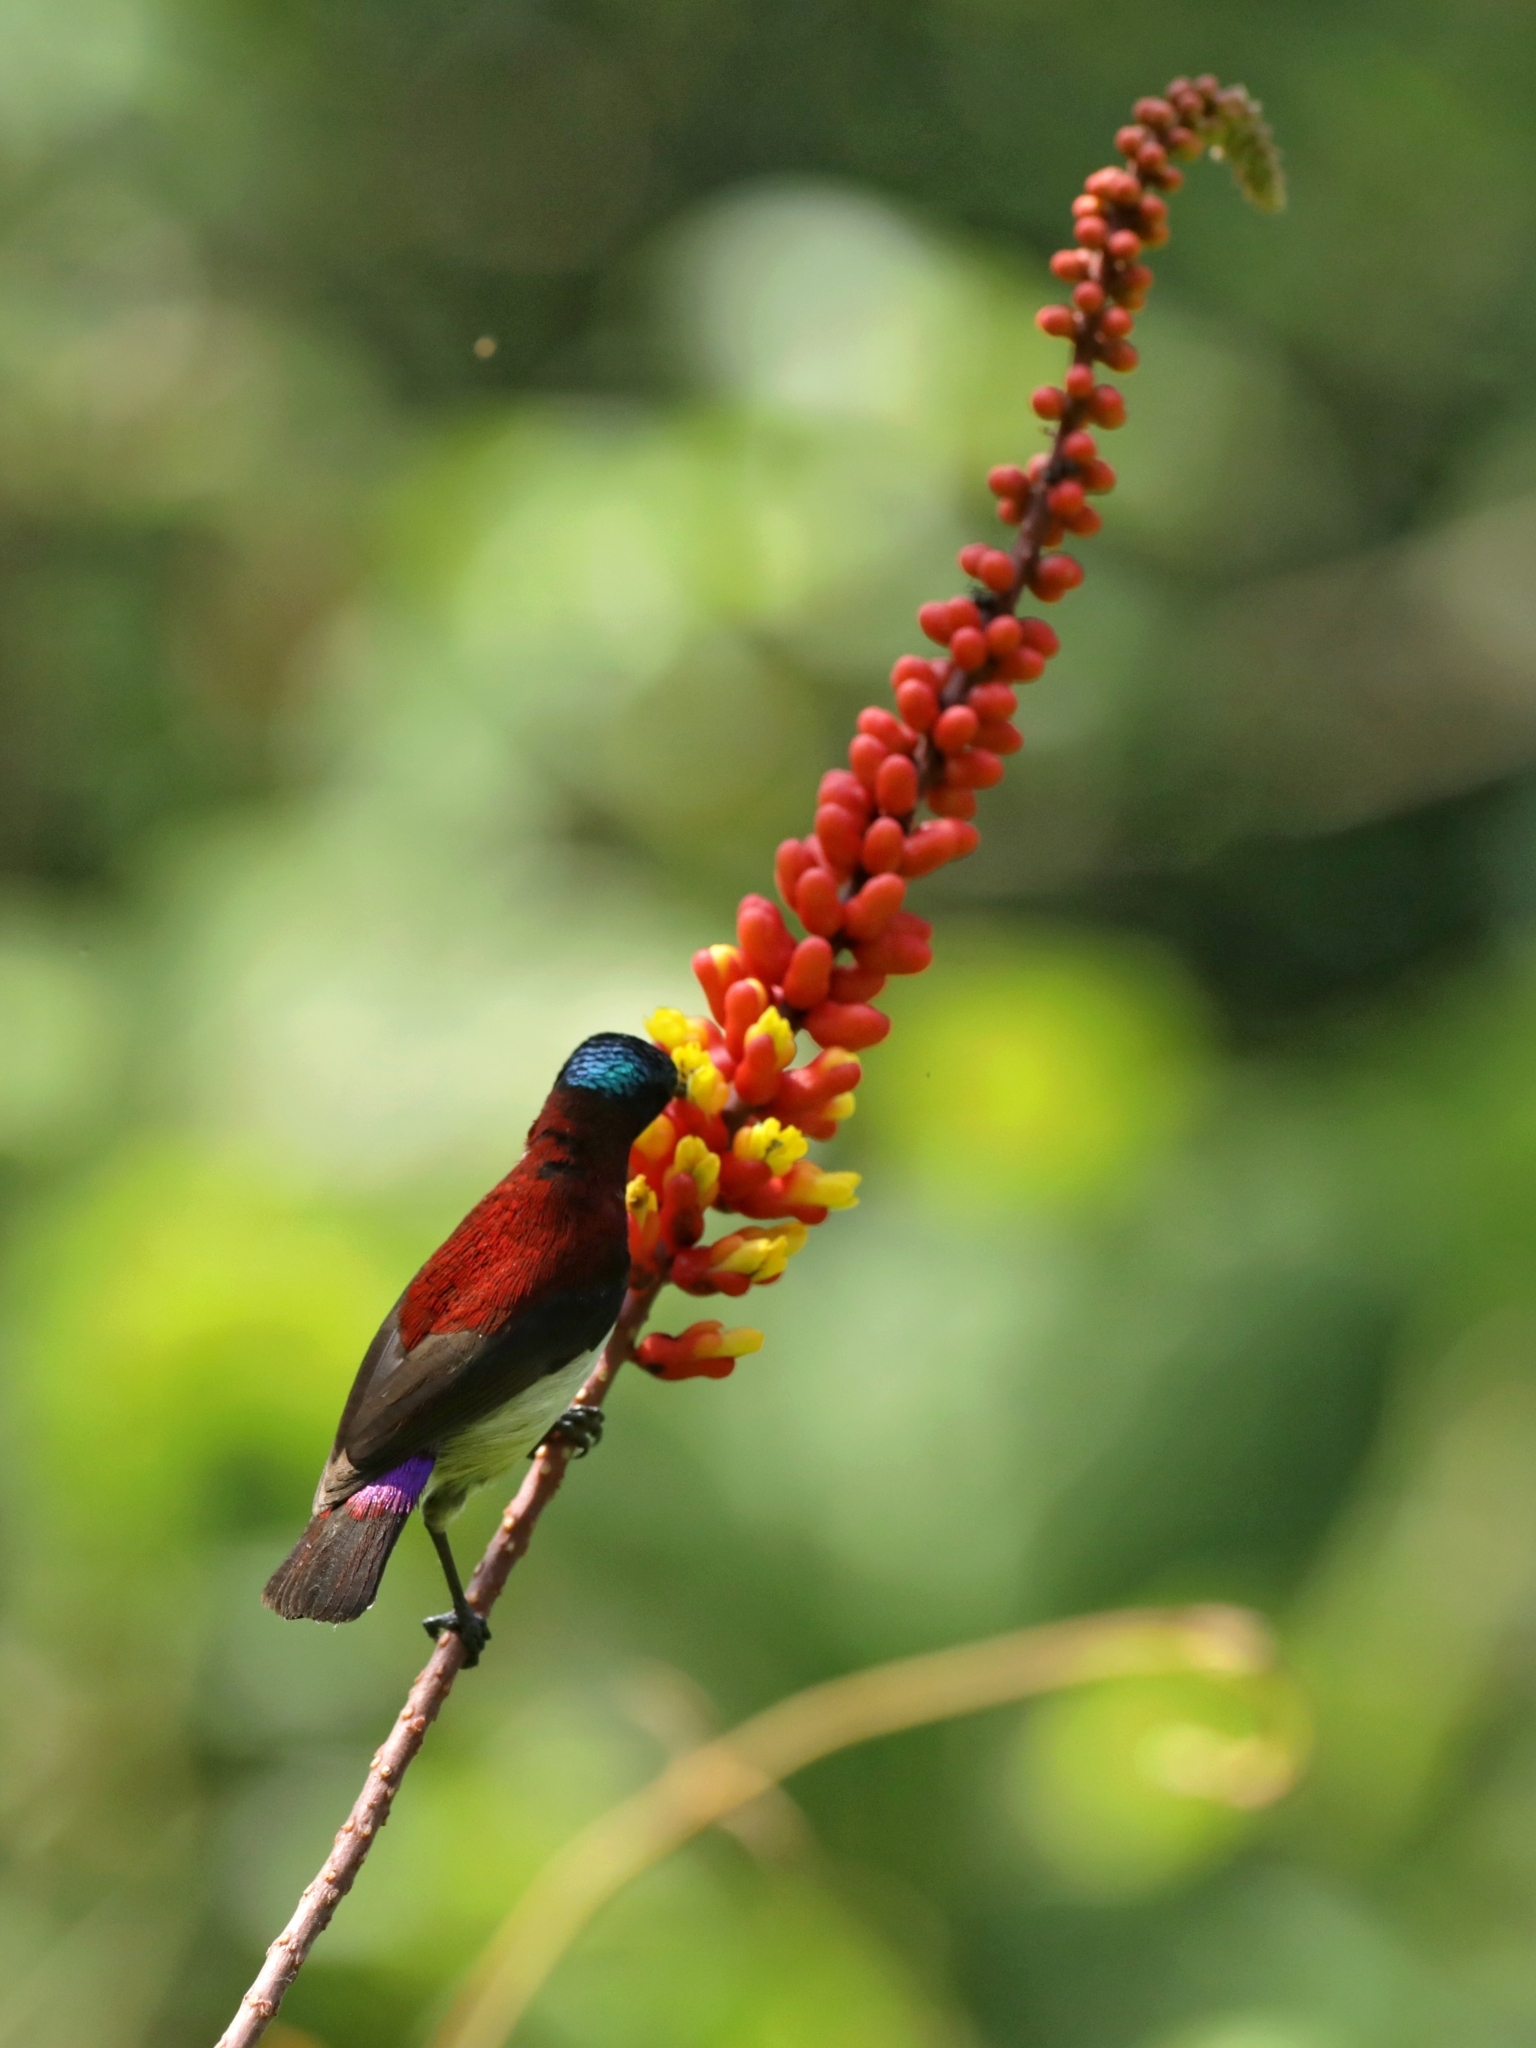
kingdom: Animalia
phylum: Chordata
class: Aves
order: Passeriformes
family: Nectariniidae
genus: Leptocoma
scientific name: Leptocoma minima
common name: Crimson-backed sunbird
